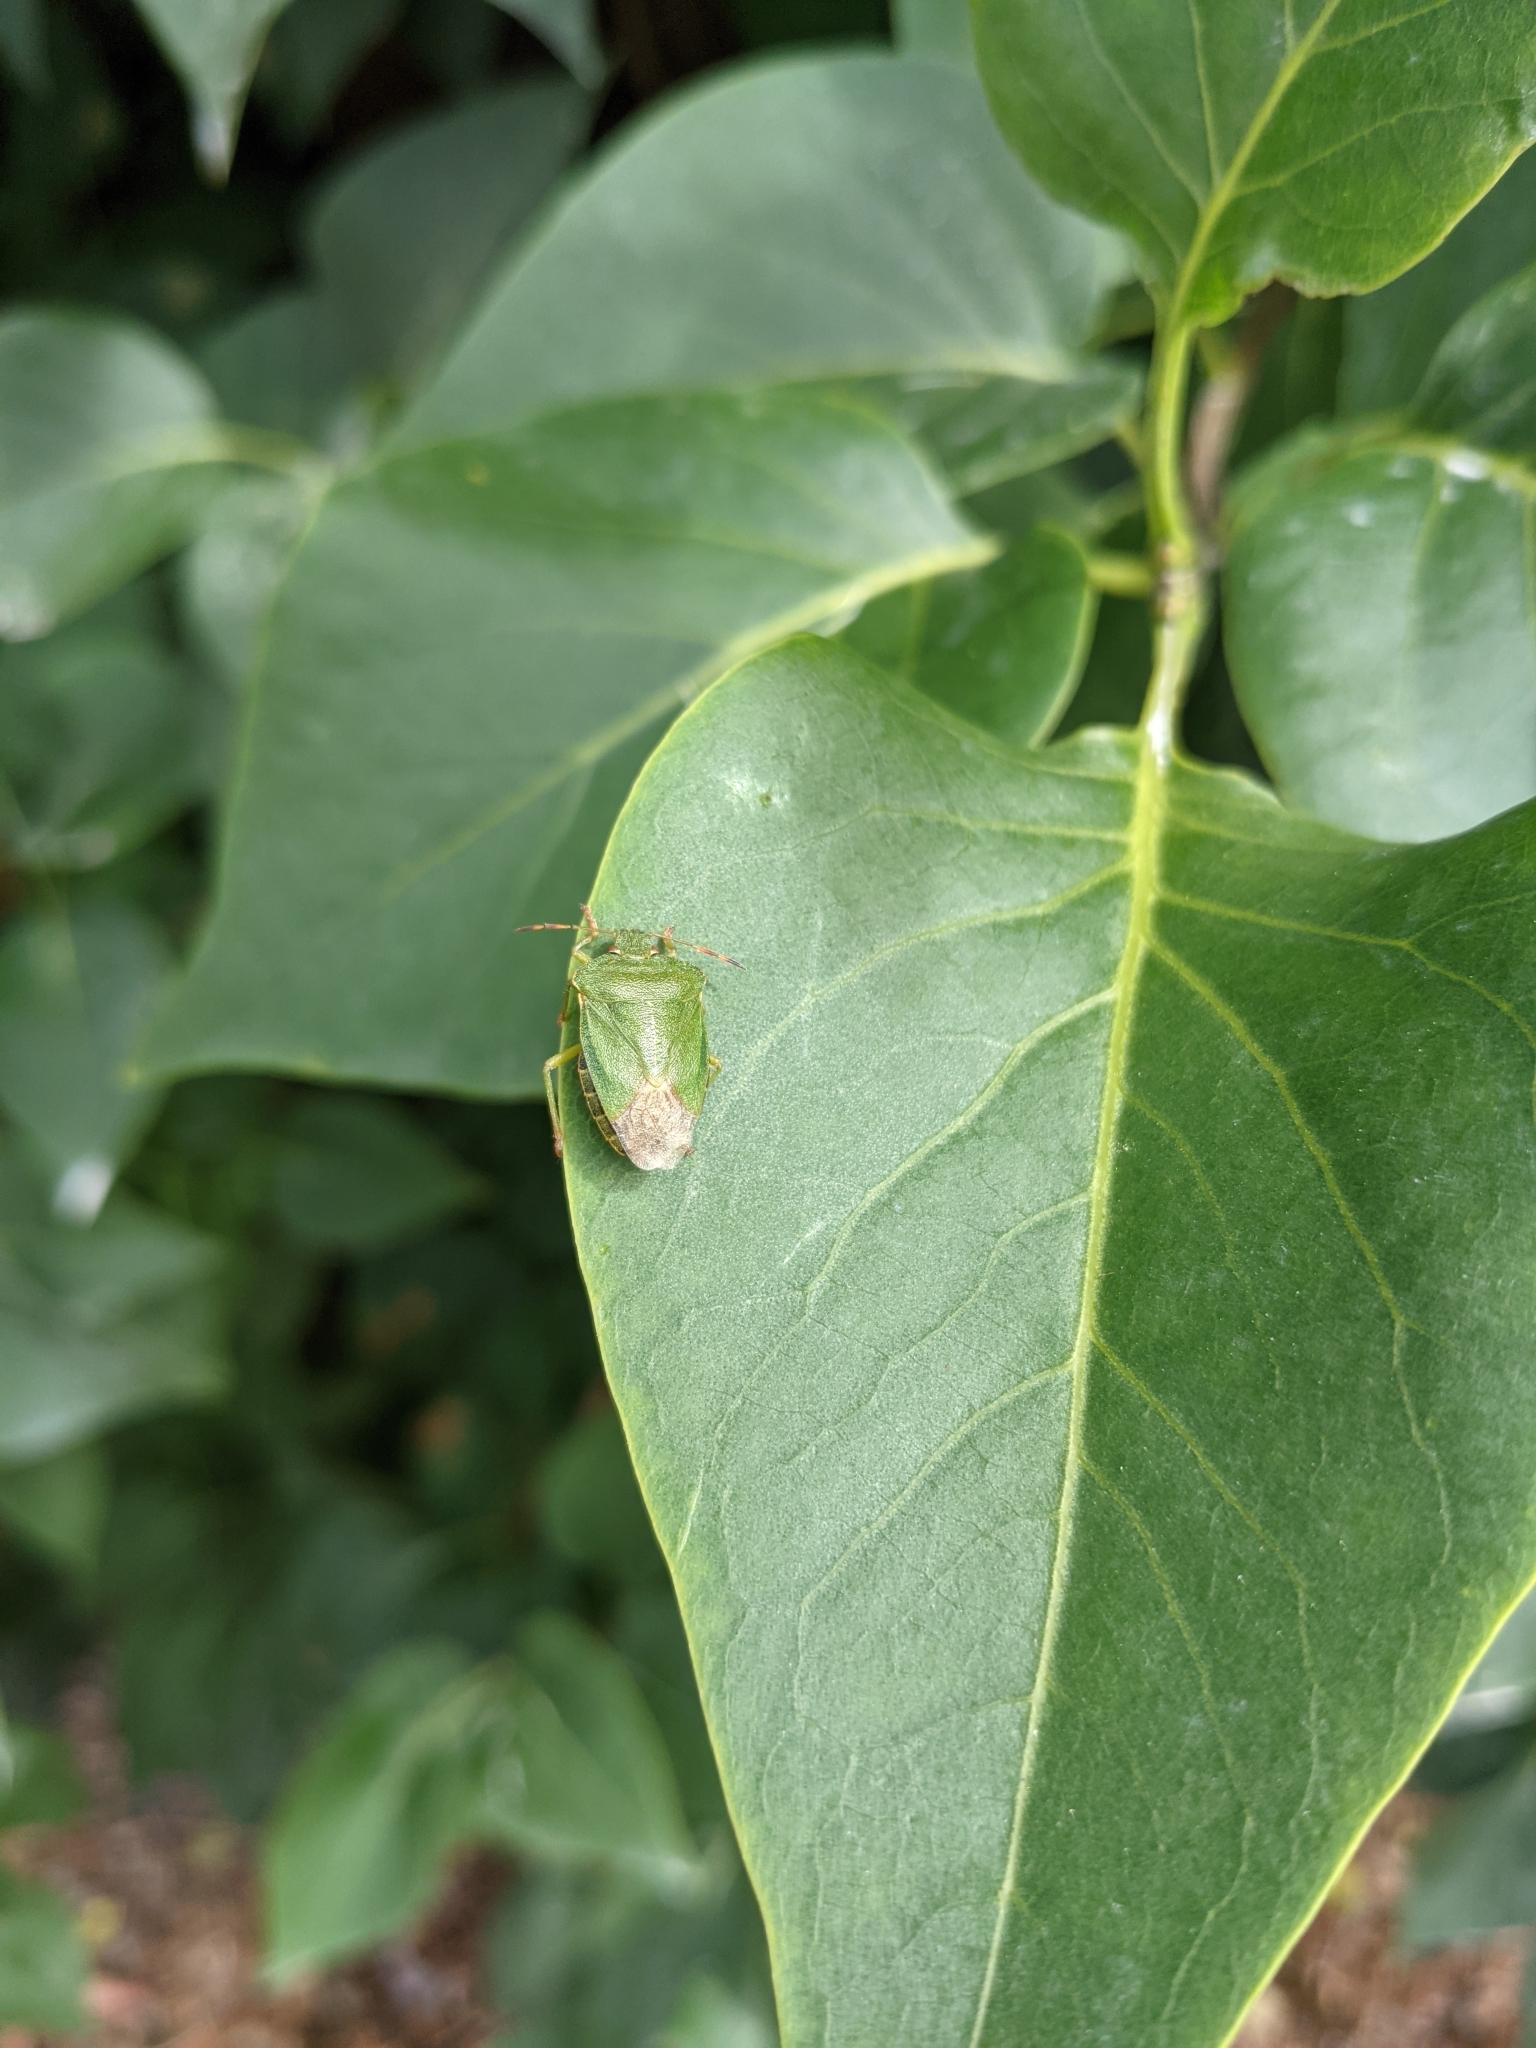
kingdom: Animalia
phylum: Arthropoda
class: Insecta
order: Hemiptera
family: Pentatomidae
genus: Palomena
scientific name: Palomena prasina
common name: Green shieldbug
